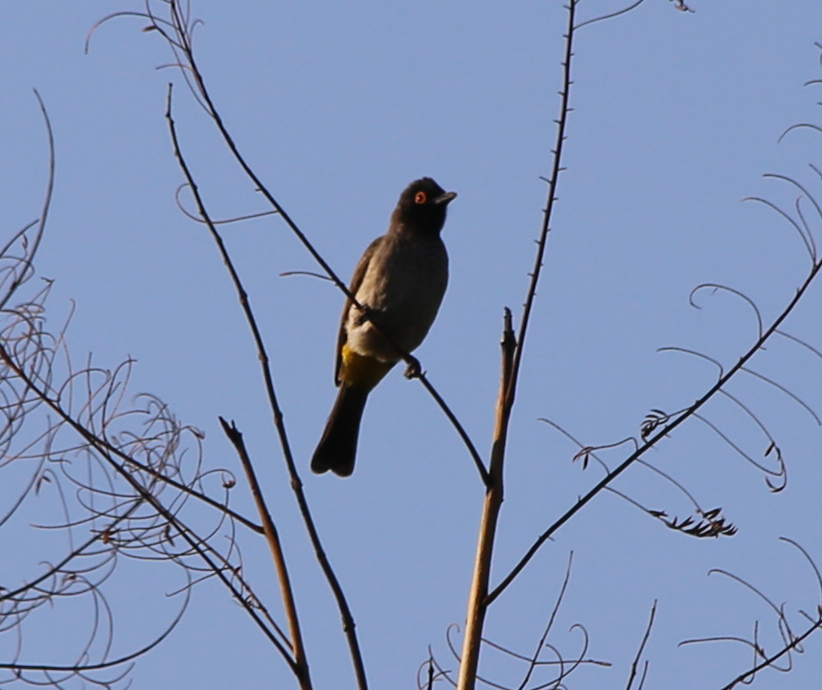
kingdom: Animalia
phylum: Chordata
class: Aves
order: Passeriformes
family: Pycnonotidae
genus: Pycnonotus
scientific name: Pycnonotus nigricans
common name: African red-eyed bulbul
